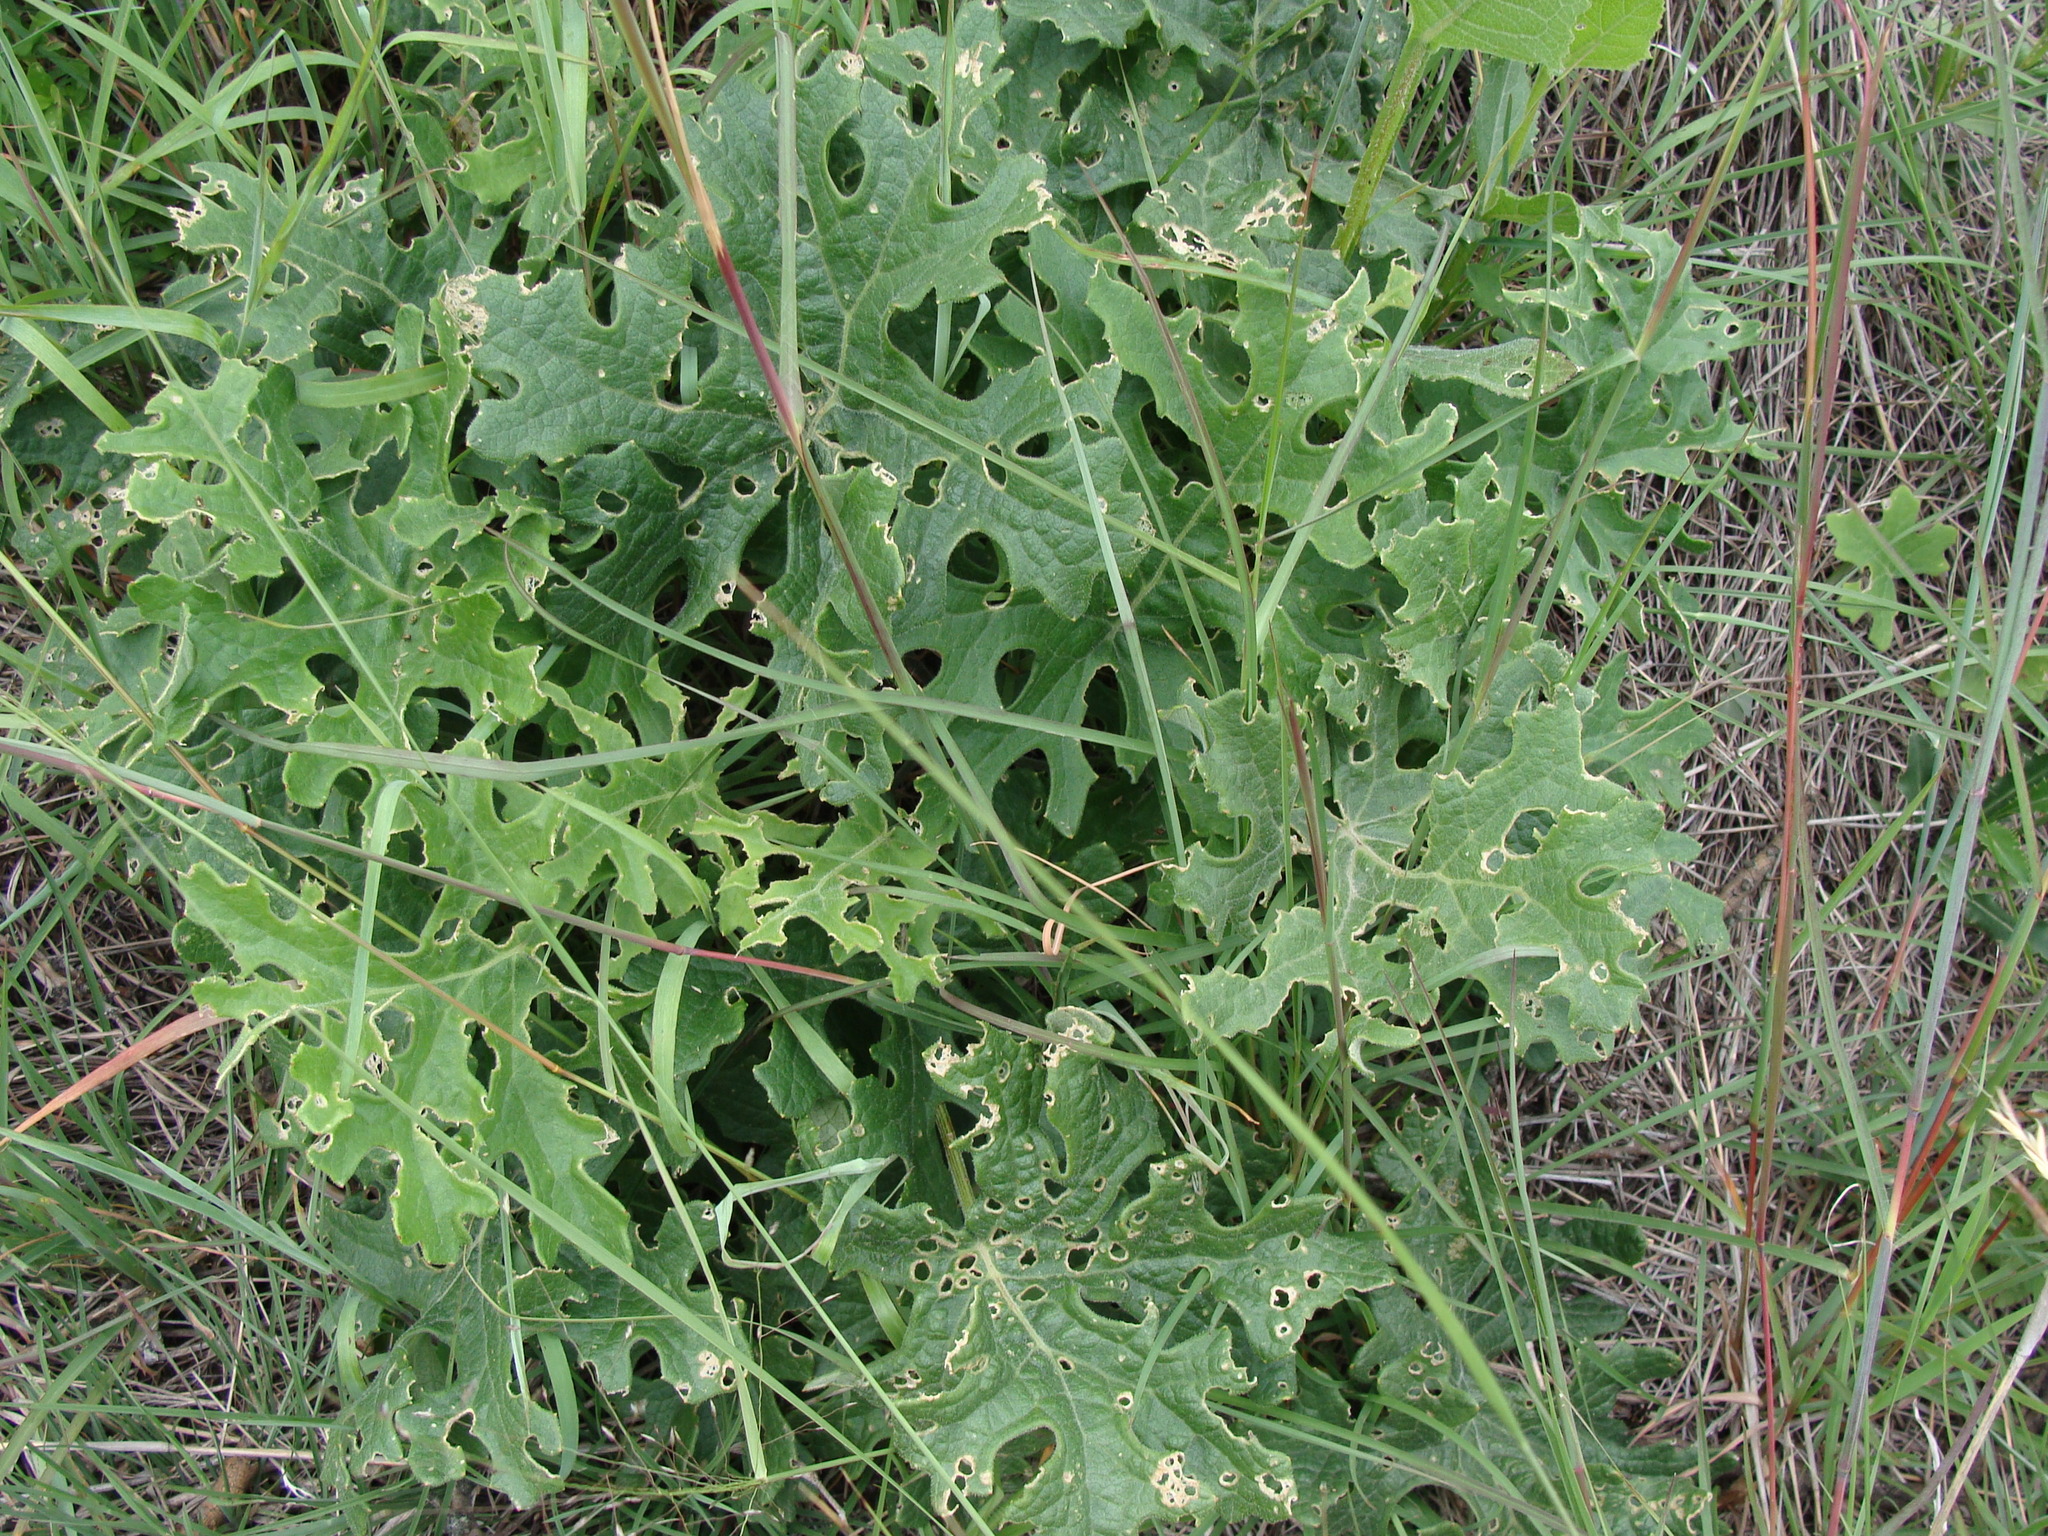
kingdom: Plantae
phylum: Tracheophyta
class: Magnoliopsida
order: Asterales
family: Asteraceae
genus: Psacalium
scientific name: Psacalium radulifolium
